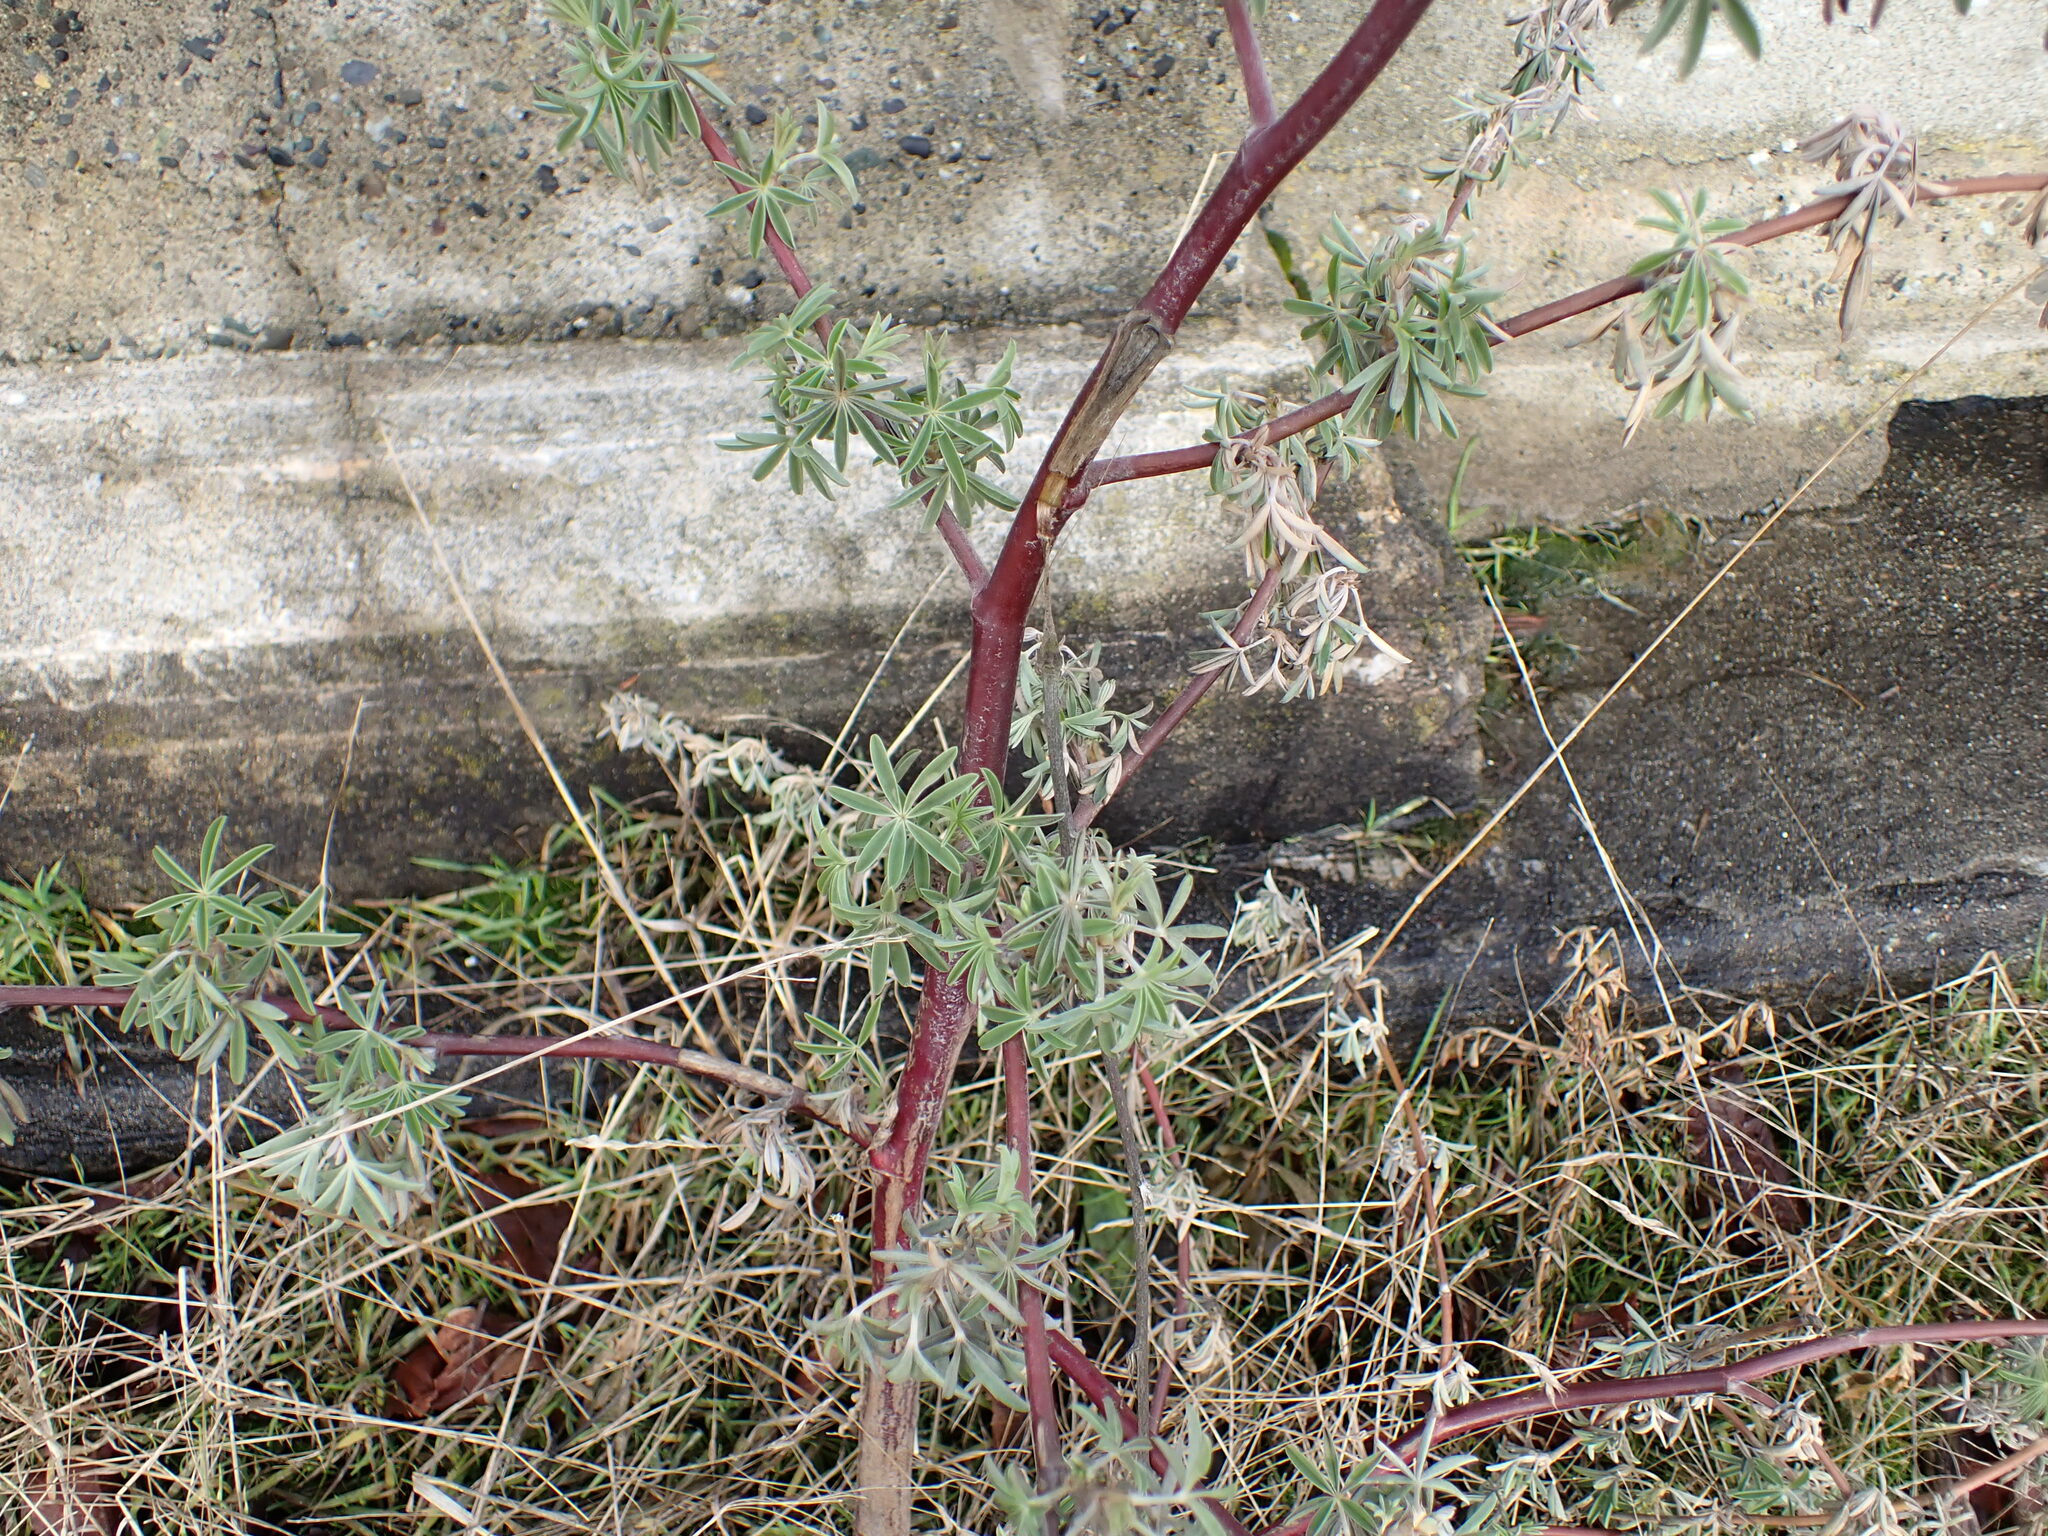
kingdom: Plantae
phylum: Tracheophyta
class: Magnoliopsida
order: Fabales
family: Fabaceae
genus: Lupinus
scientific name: Lupinus arboreus
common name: Yellow bush lupine
